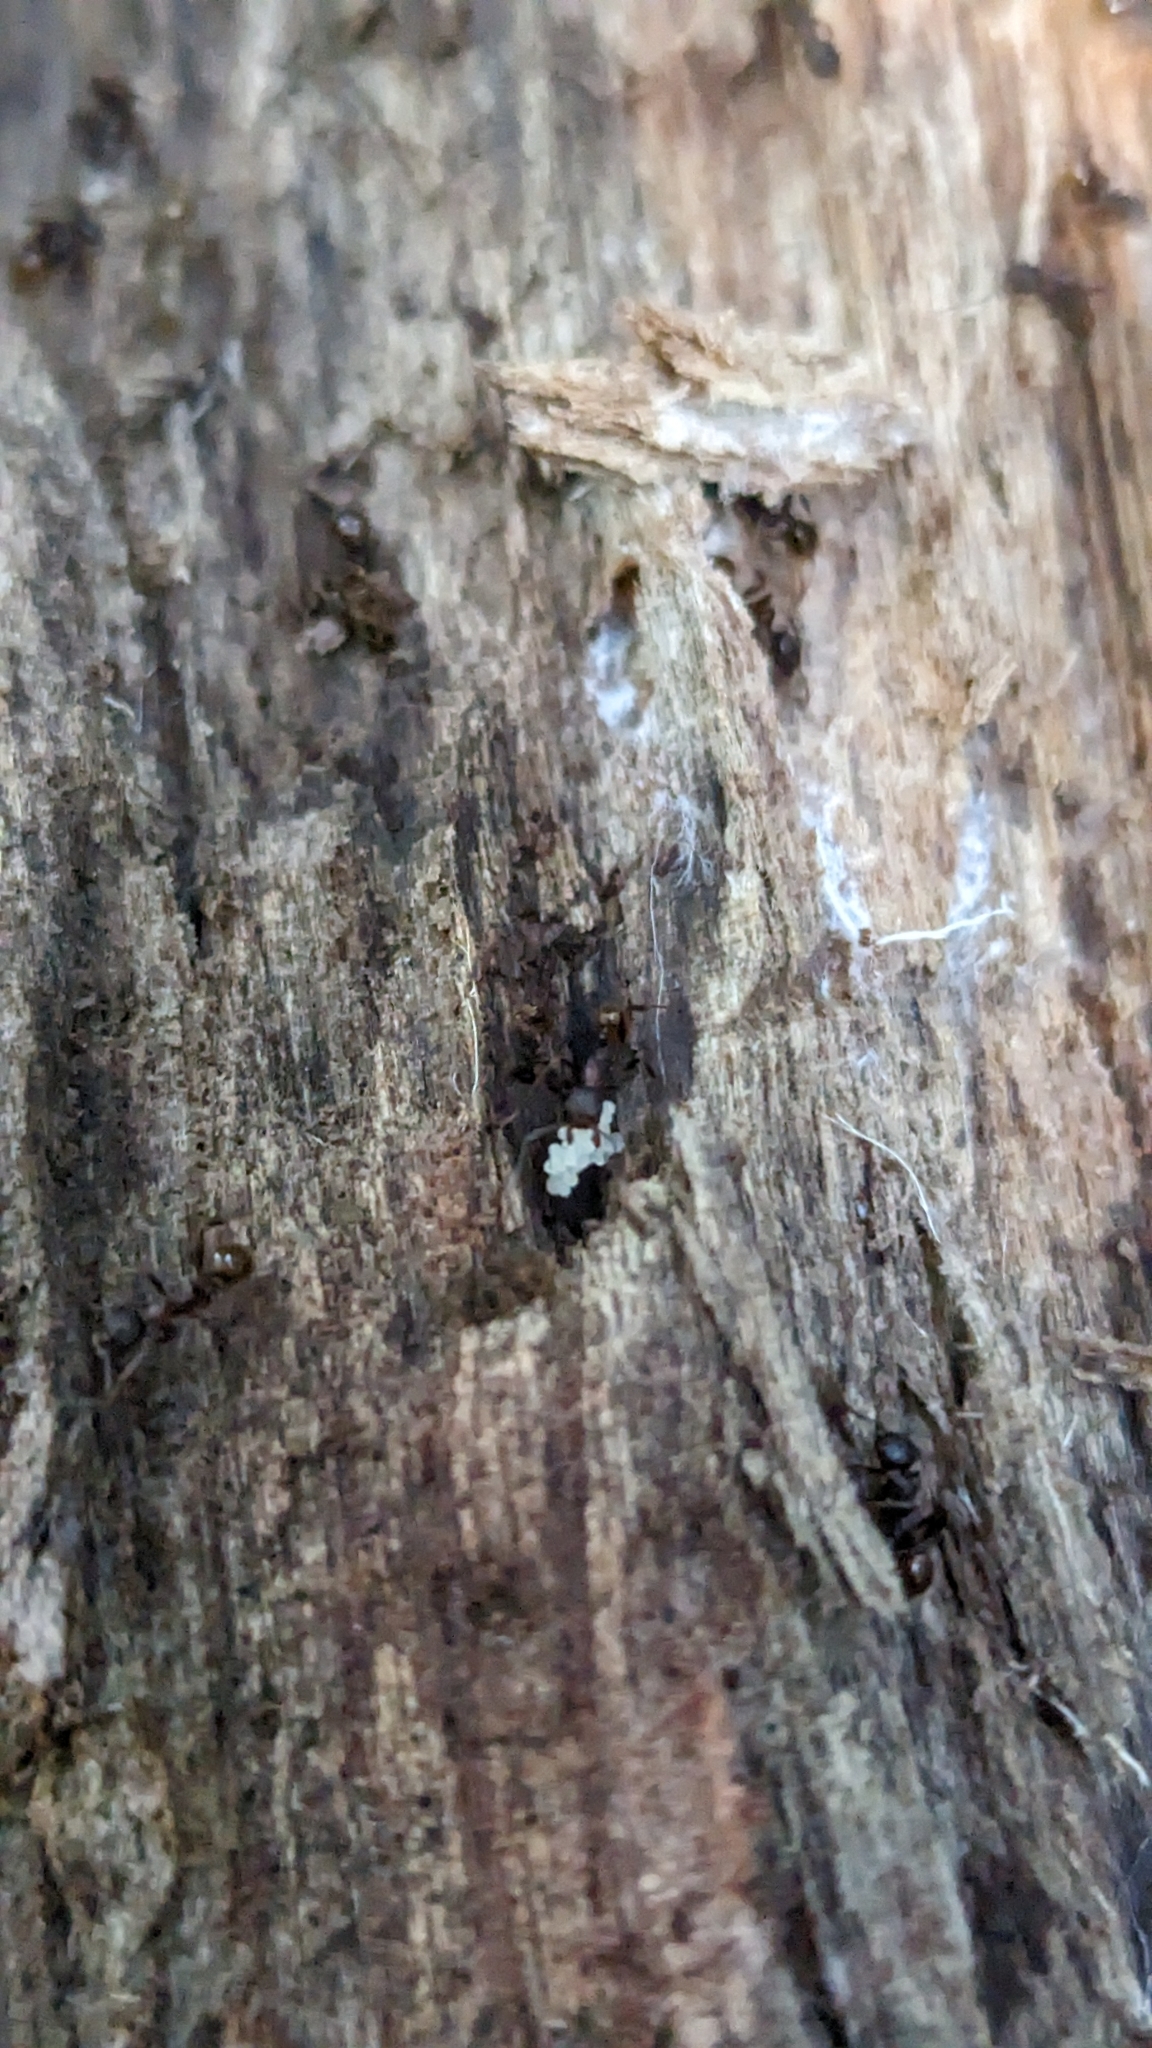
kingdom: Animalia
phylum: Arthropoda
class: Insecta
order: Hymenoptera
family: Formicidae
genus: Aphaenogaster
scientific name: Aphaenogaster fulva
